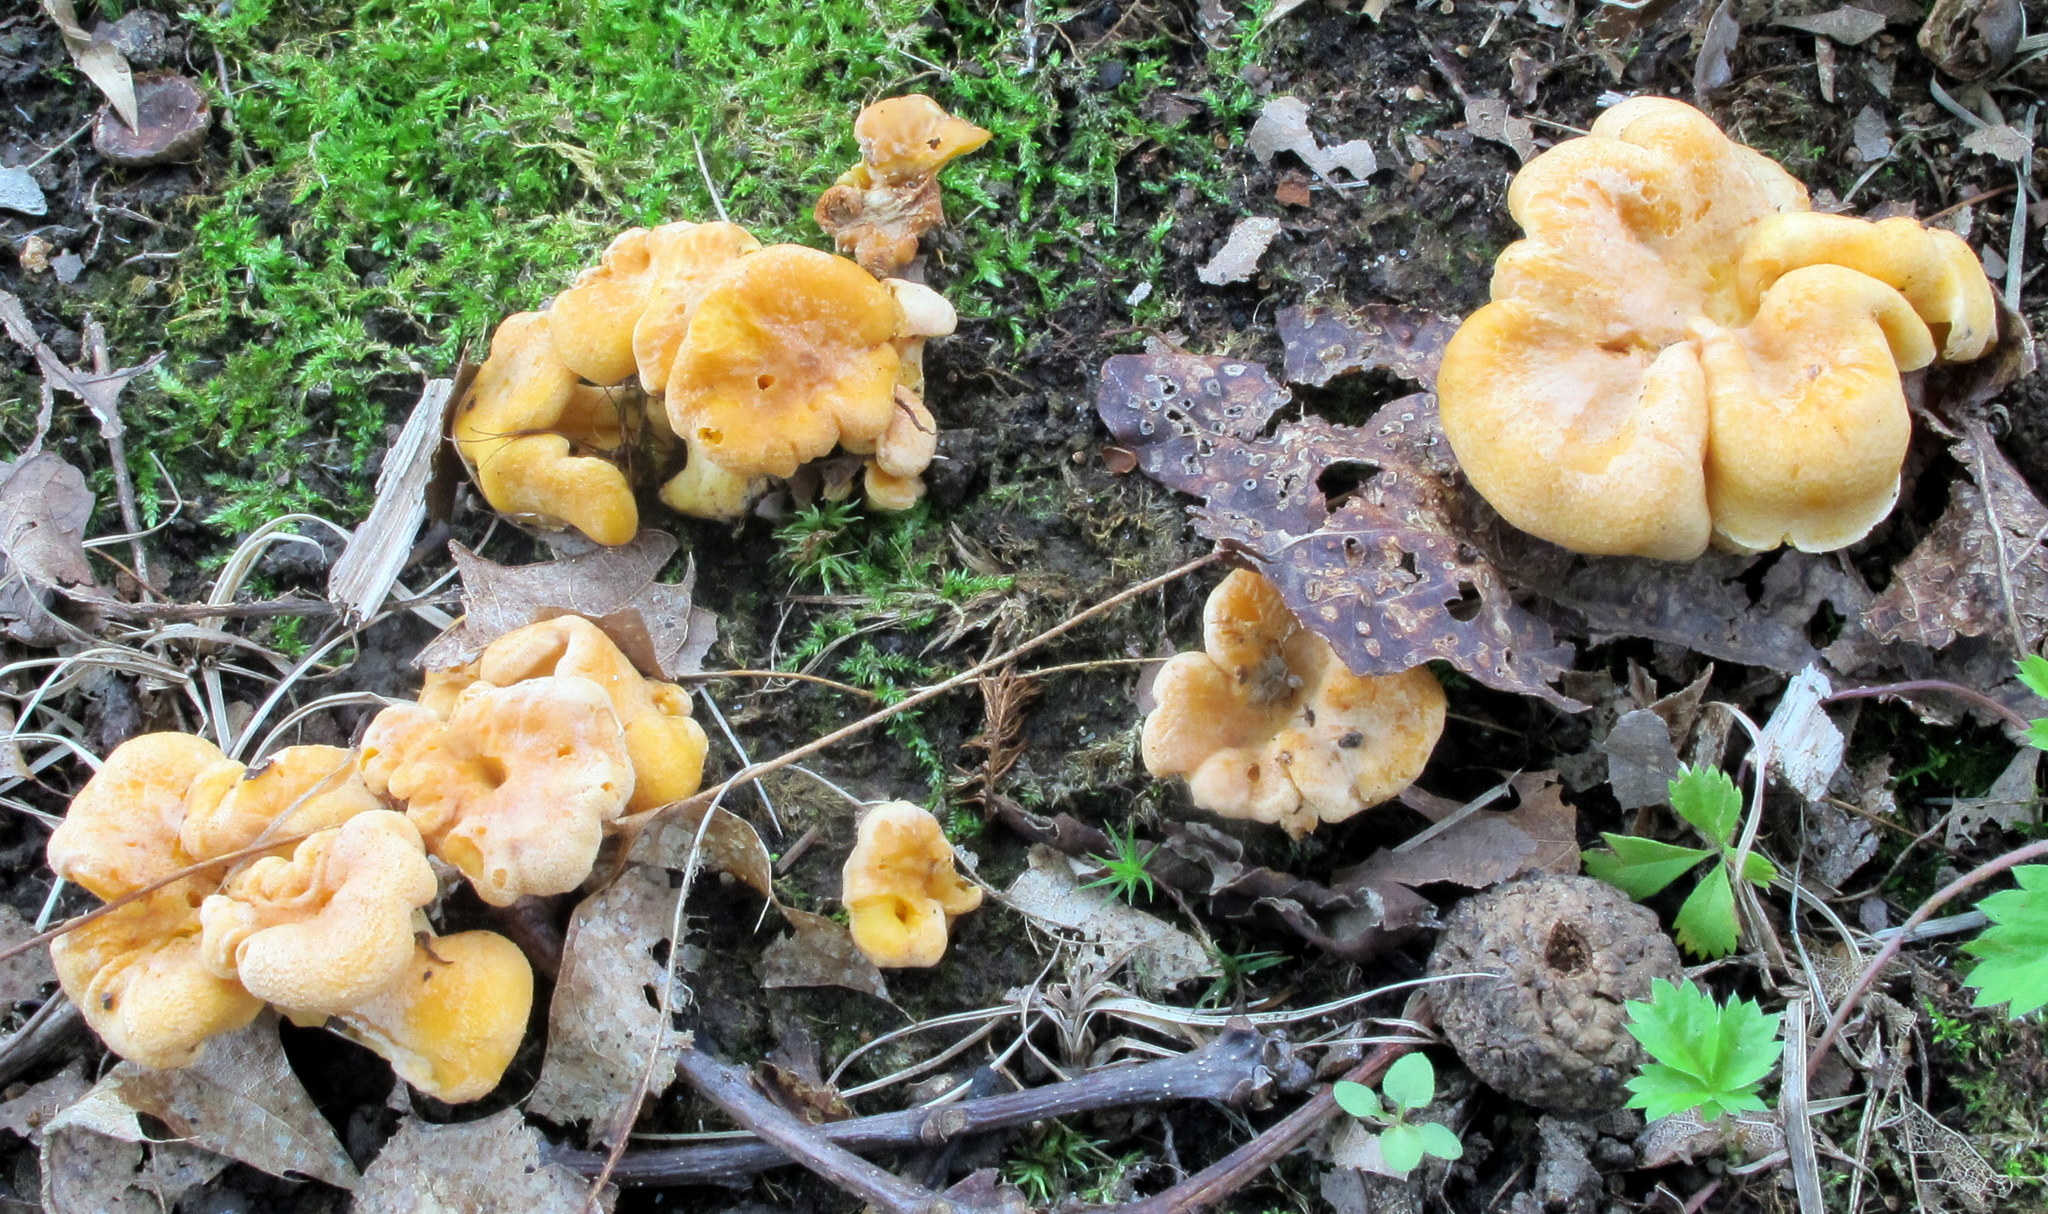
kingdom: Fungi
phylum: Basidiomycota
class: Agaricomycetes
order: Cantharellales
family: Hydnaceae
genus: Cantharellus
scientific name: Cantharellus lateritius
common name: Smooth chanterelle
